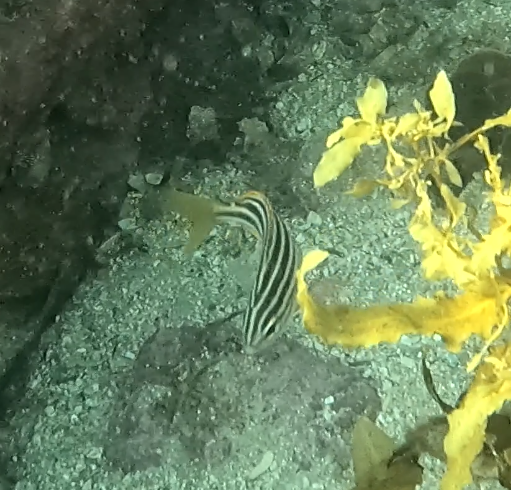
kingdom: Animalia
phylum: Chordata
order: Perciformes
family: Kyphosidae
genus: Atypichthys
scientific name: Atypichthys strigatus
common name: Australian mado
